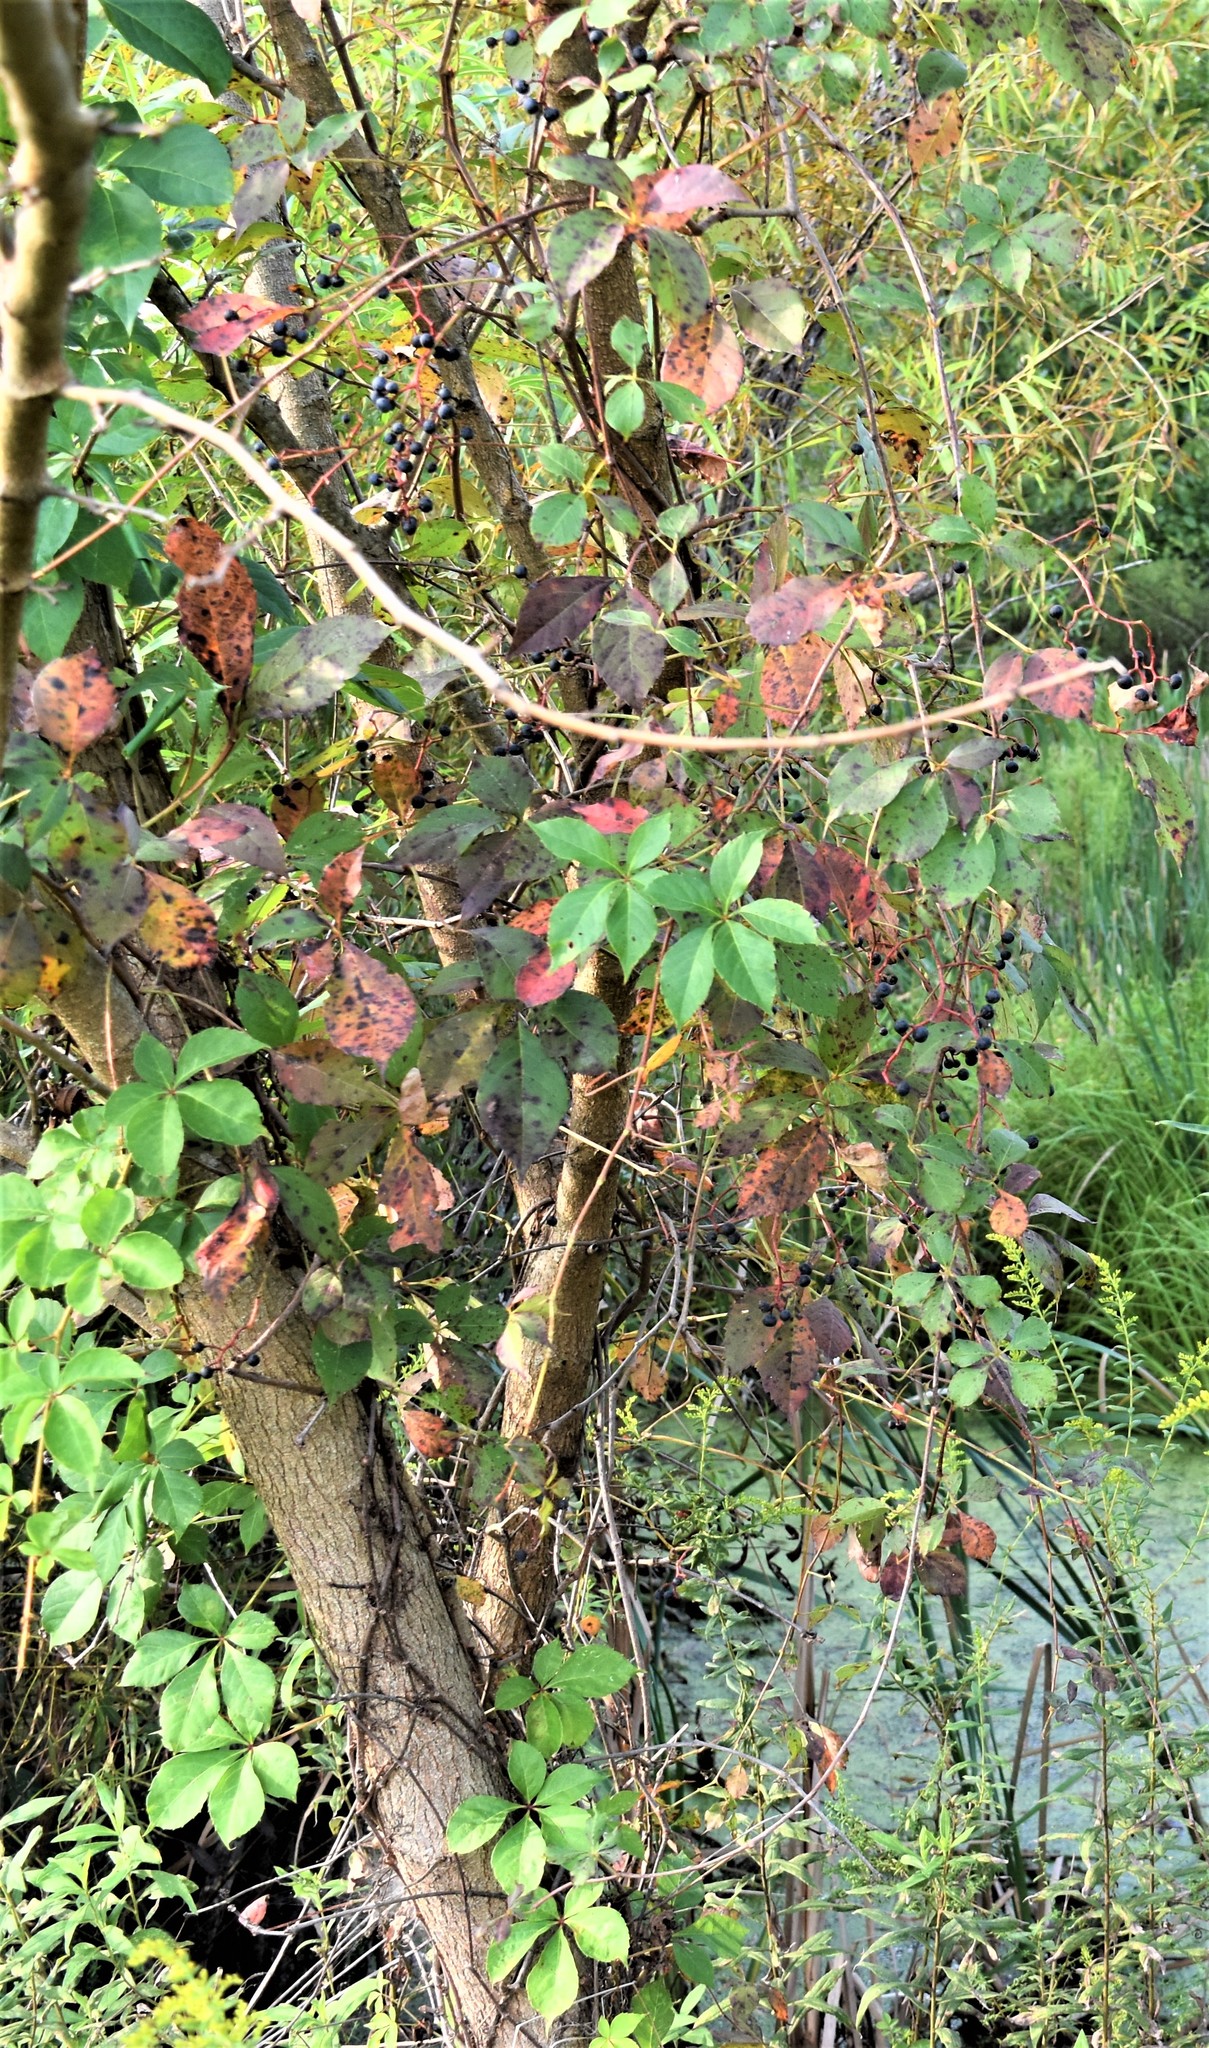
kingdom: Plantae
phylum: Tracheophyta
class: Magnoliopsida
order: Vitales
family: Vitaceae
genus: Parthenocissus
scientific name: Parthenocissus quinquefolia
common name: Virginia-creeper
